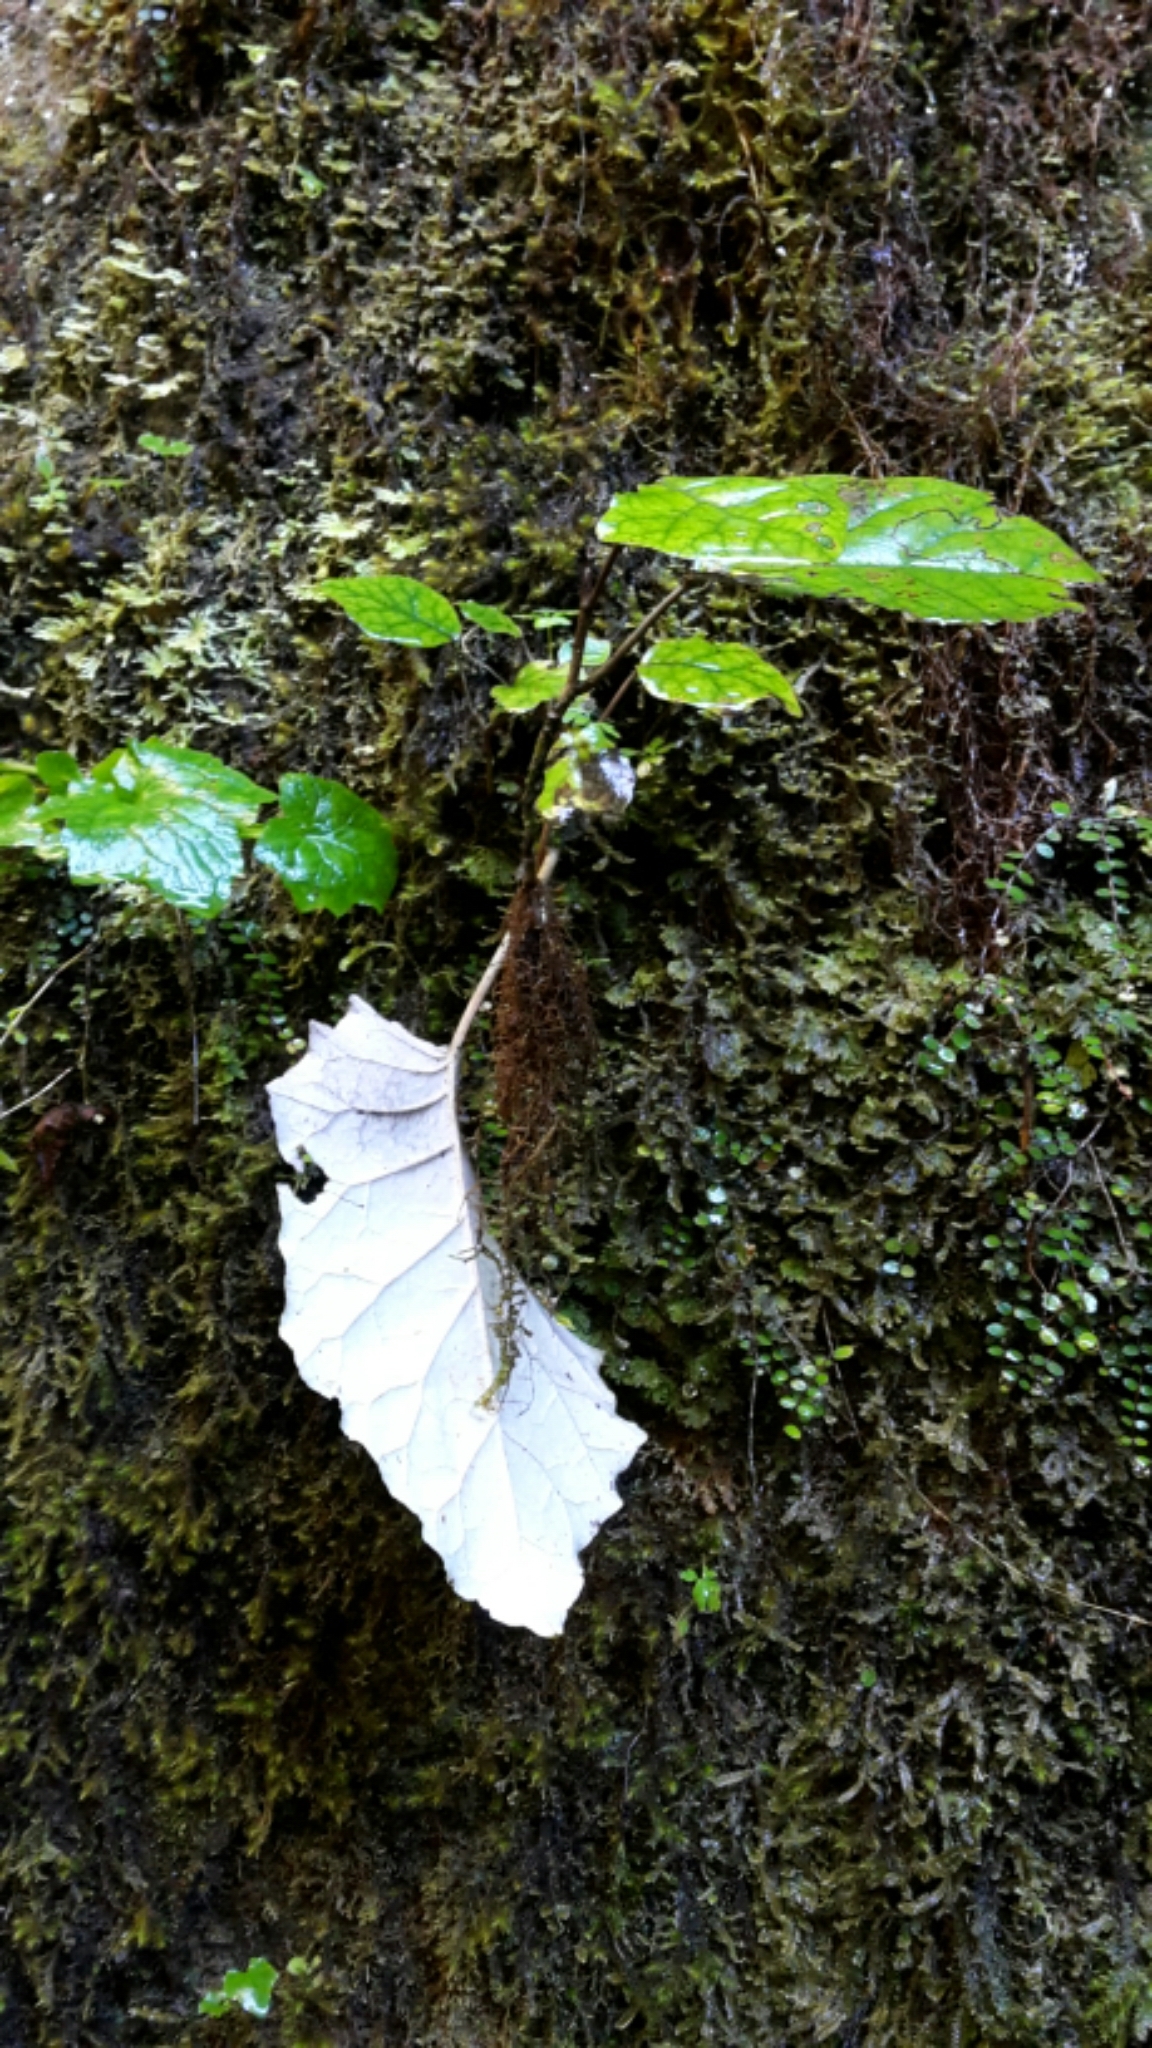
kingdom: Plantae
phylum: Tracheophyta
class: Magnoliopsida
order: Asterales
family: Asteraceae
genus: Brachyglottis
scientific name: Brachyglottis repanda
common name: Hedge ragwort
